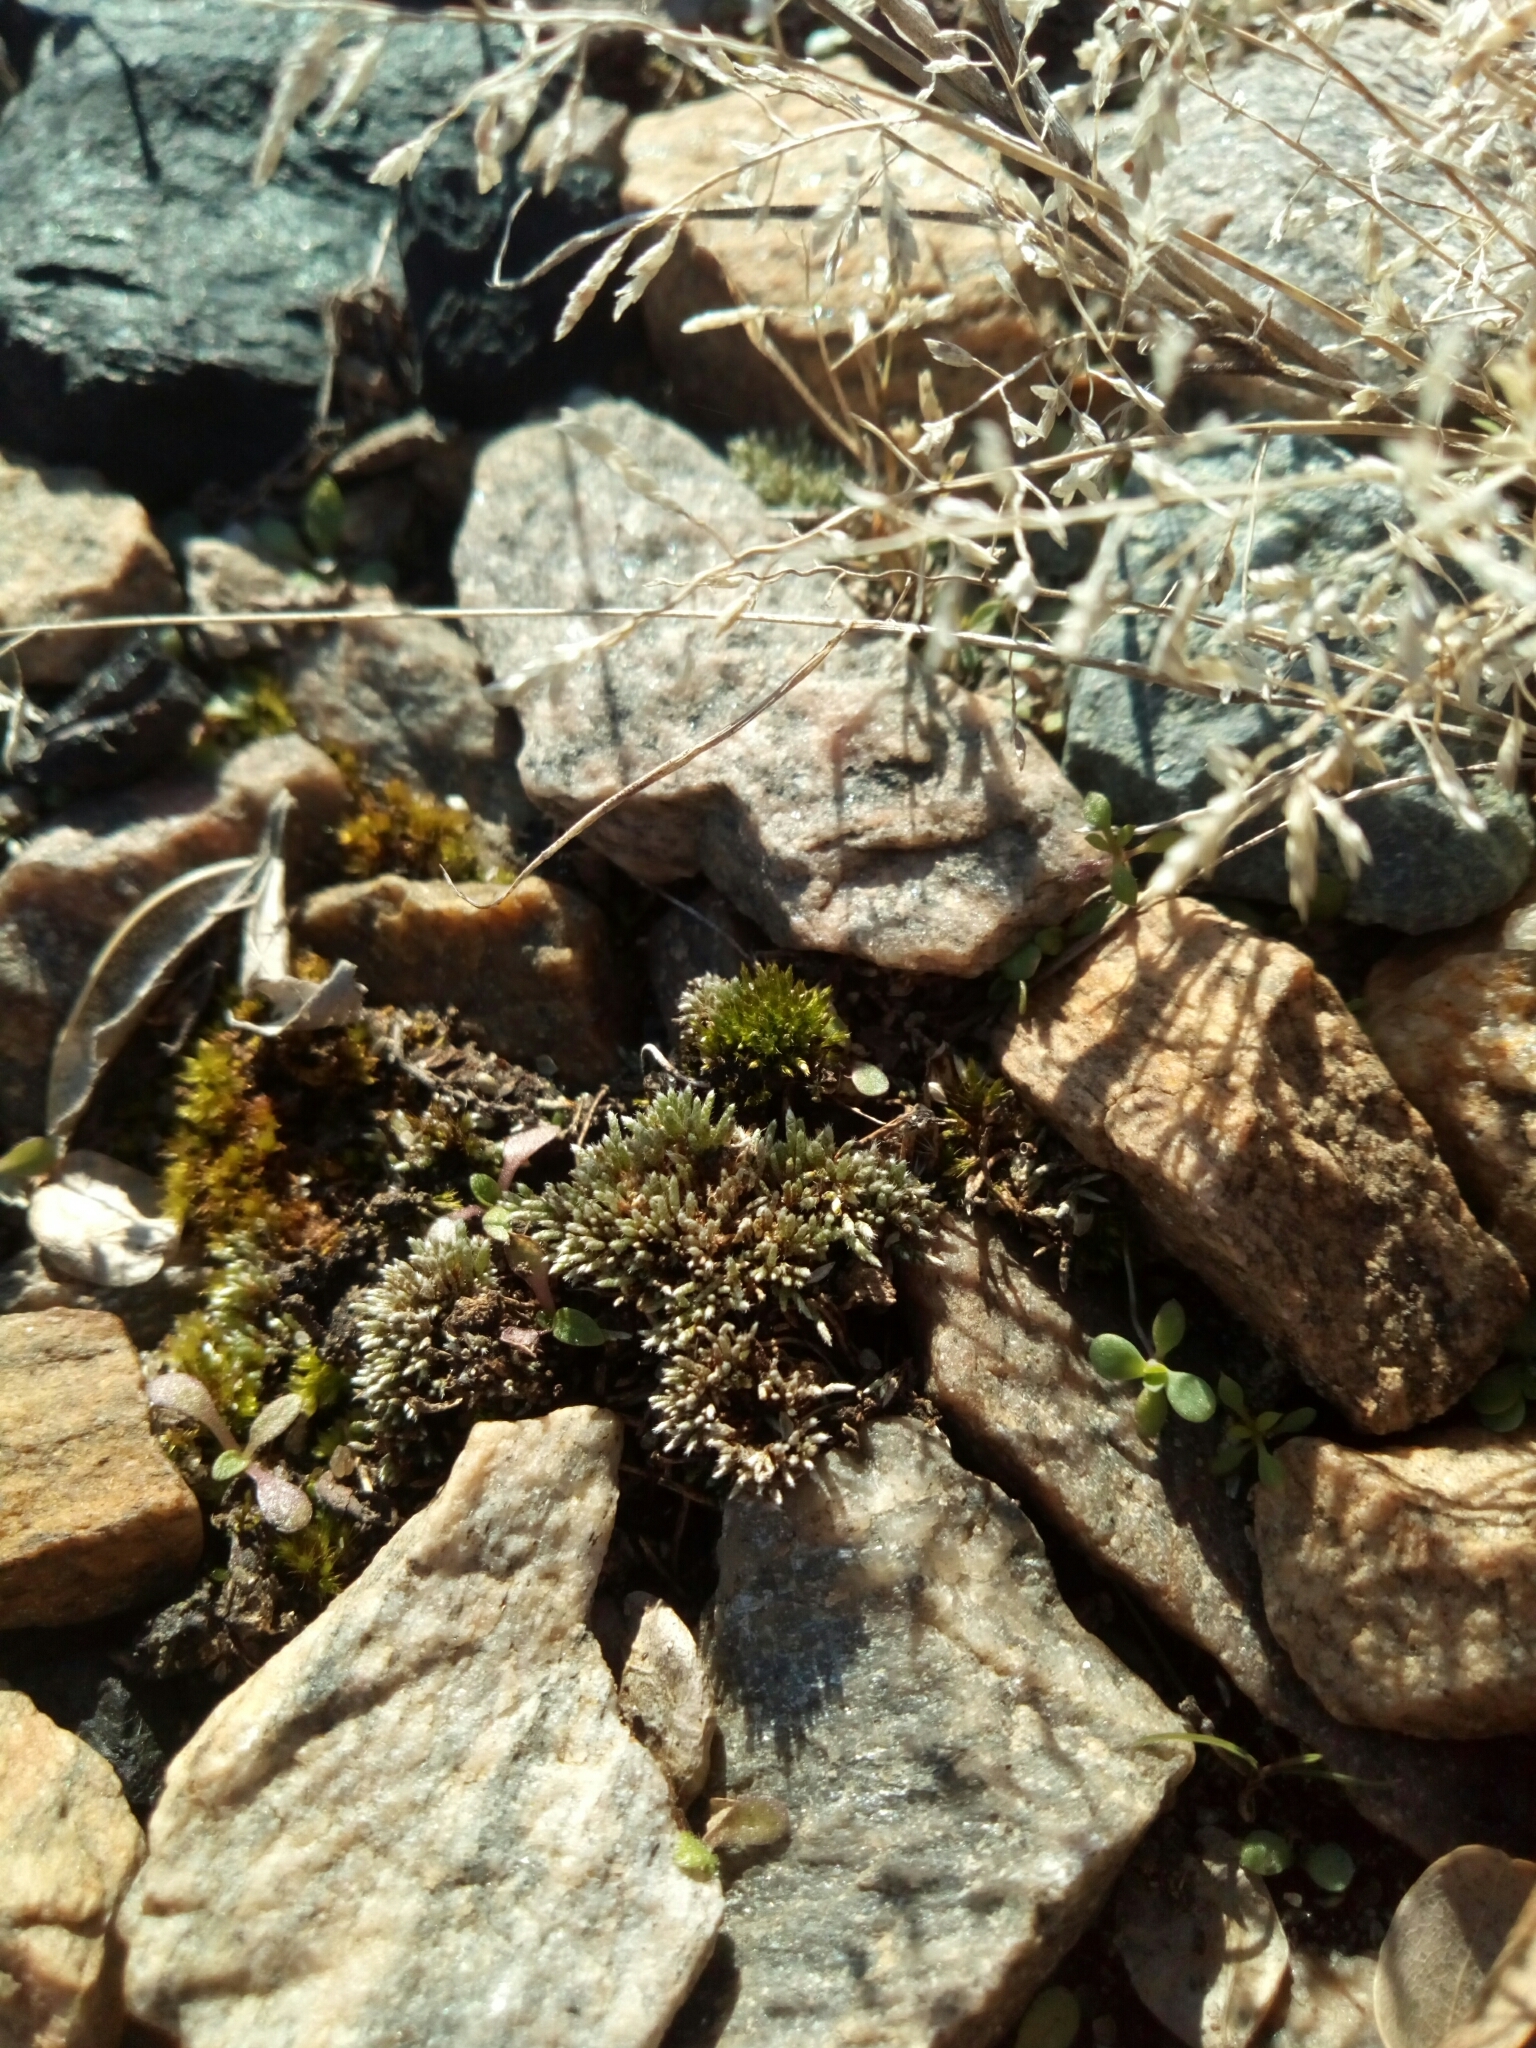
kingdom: Plantae
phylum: Bryophyta
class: Bryopsida
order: Bryales
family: Bryaceae
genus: Bryum
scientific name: Bryum argenteum
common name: Silver-moss
